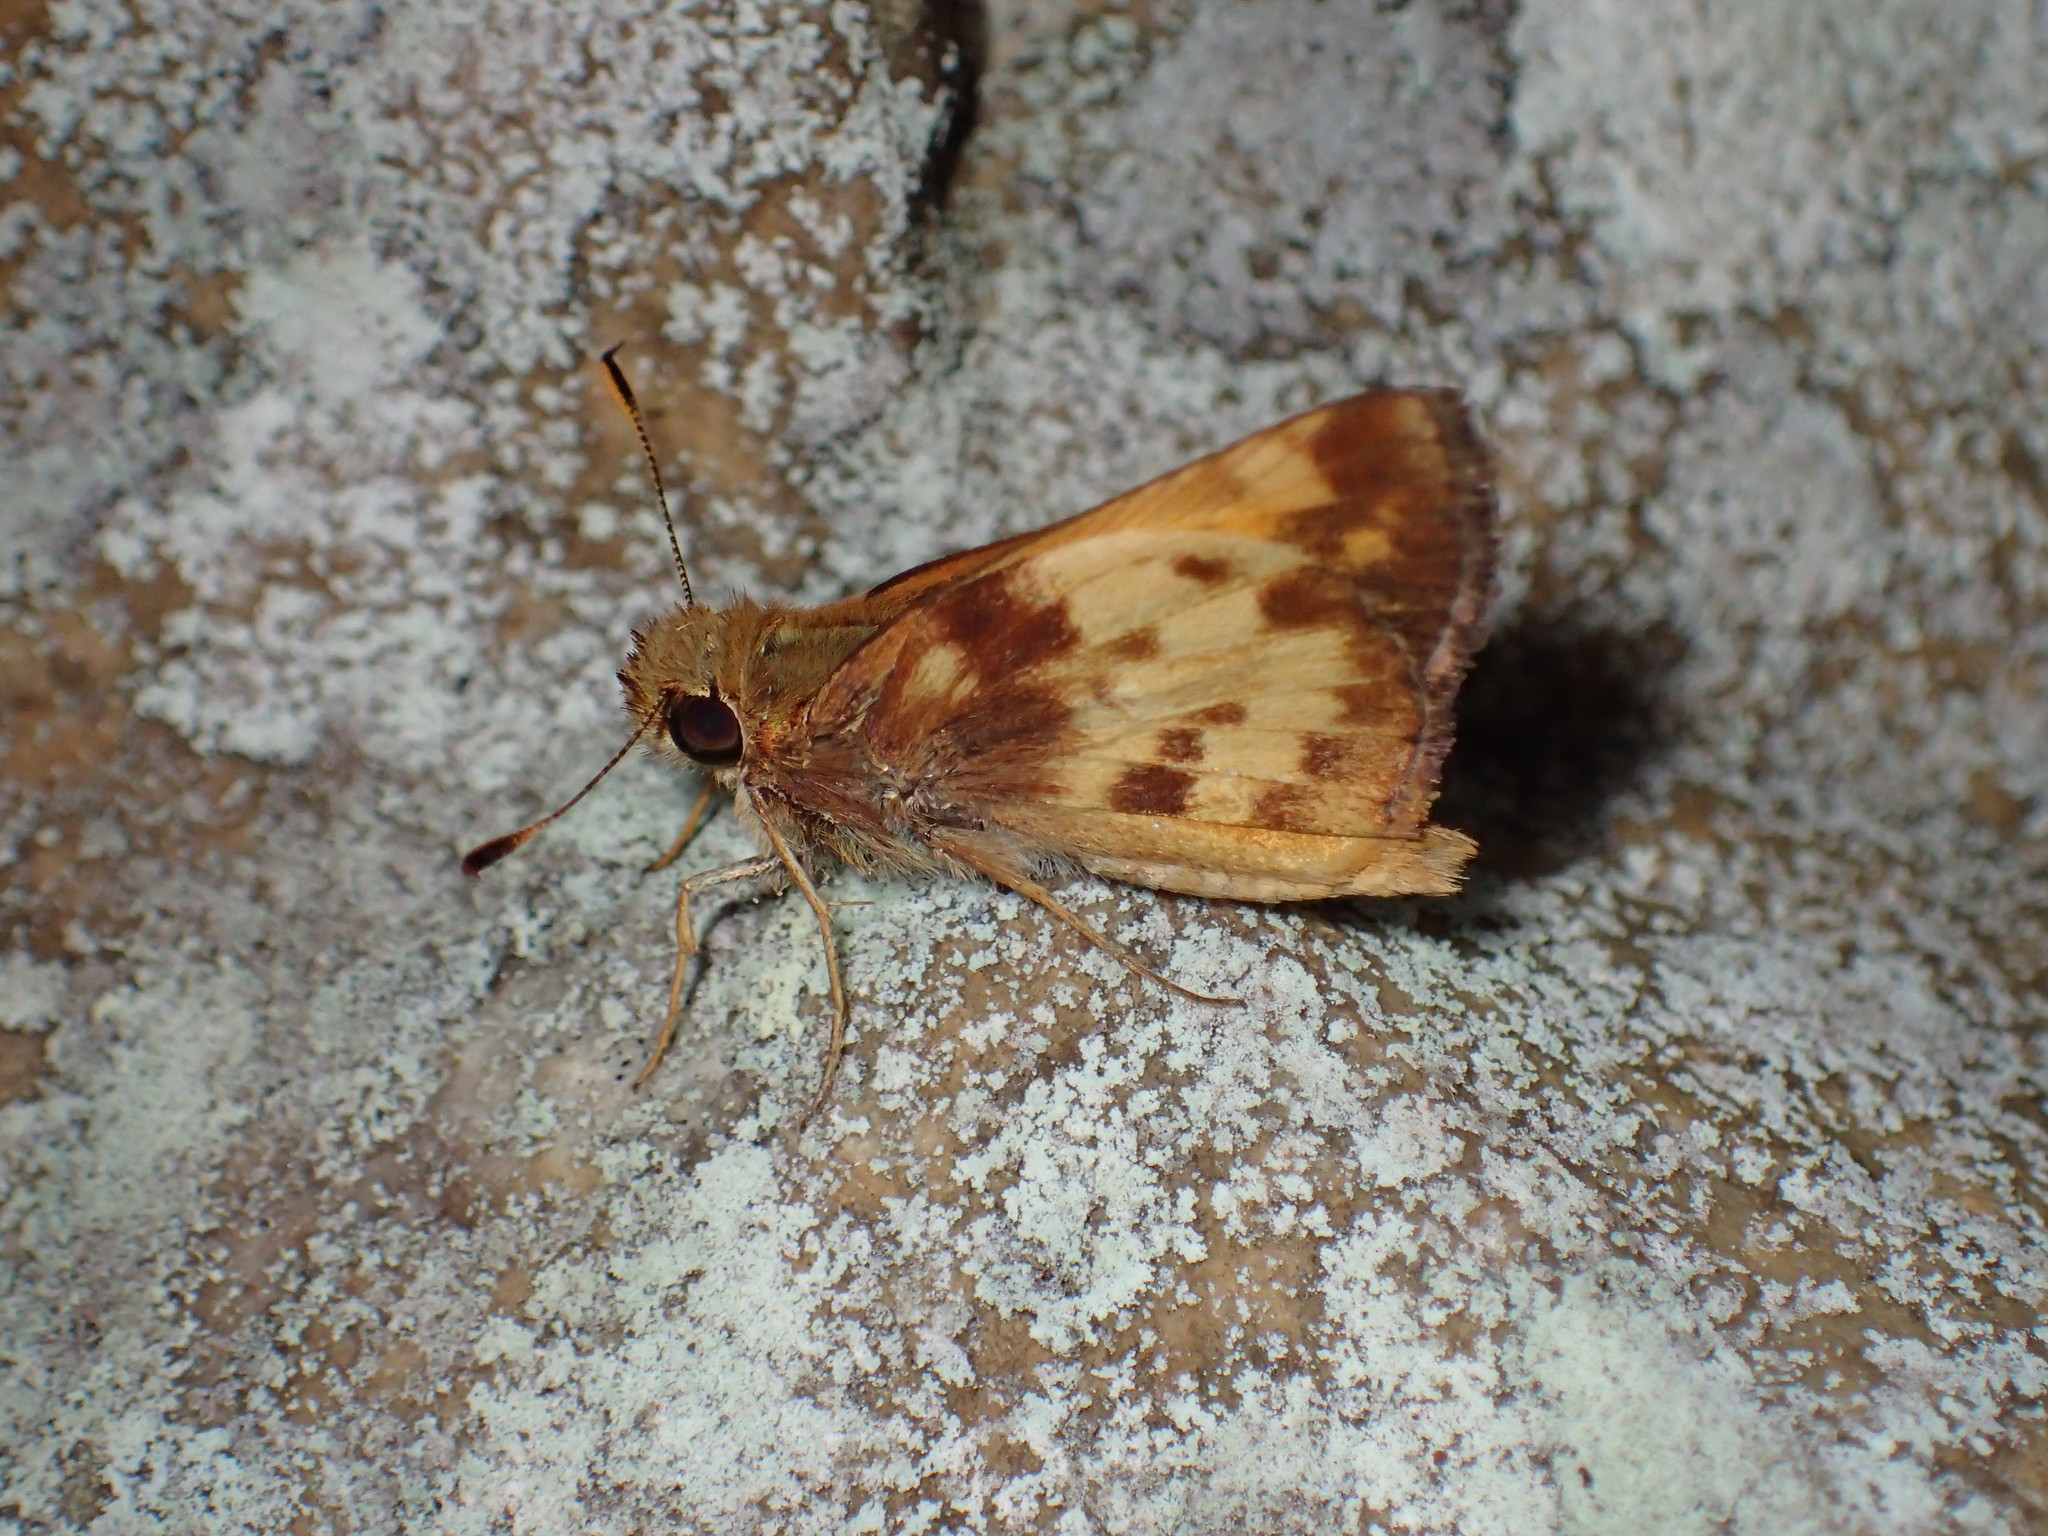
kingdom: Animalia
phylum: Arthropoda
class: Insecta
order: Lepidoptera
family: Hesperiidae
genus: Lon
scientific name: Lon zabulon
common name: Zabulon skipper
